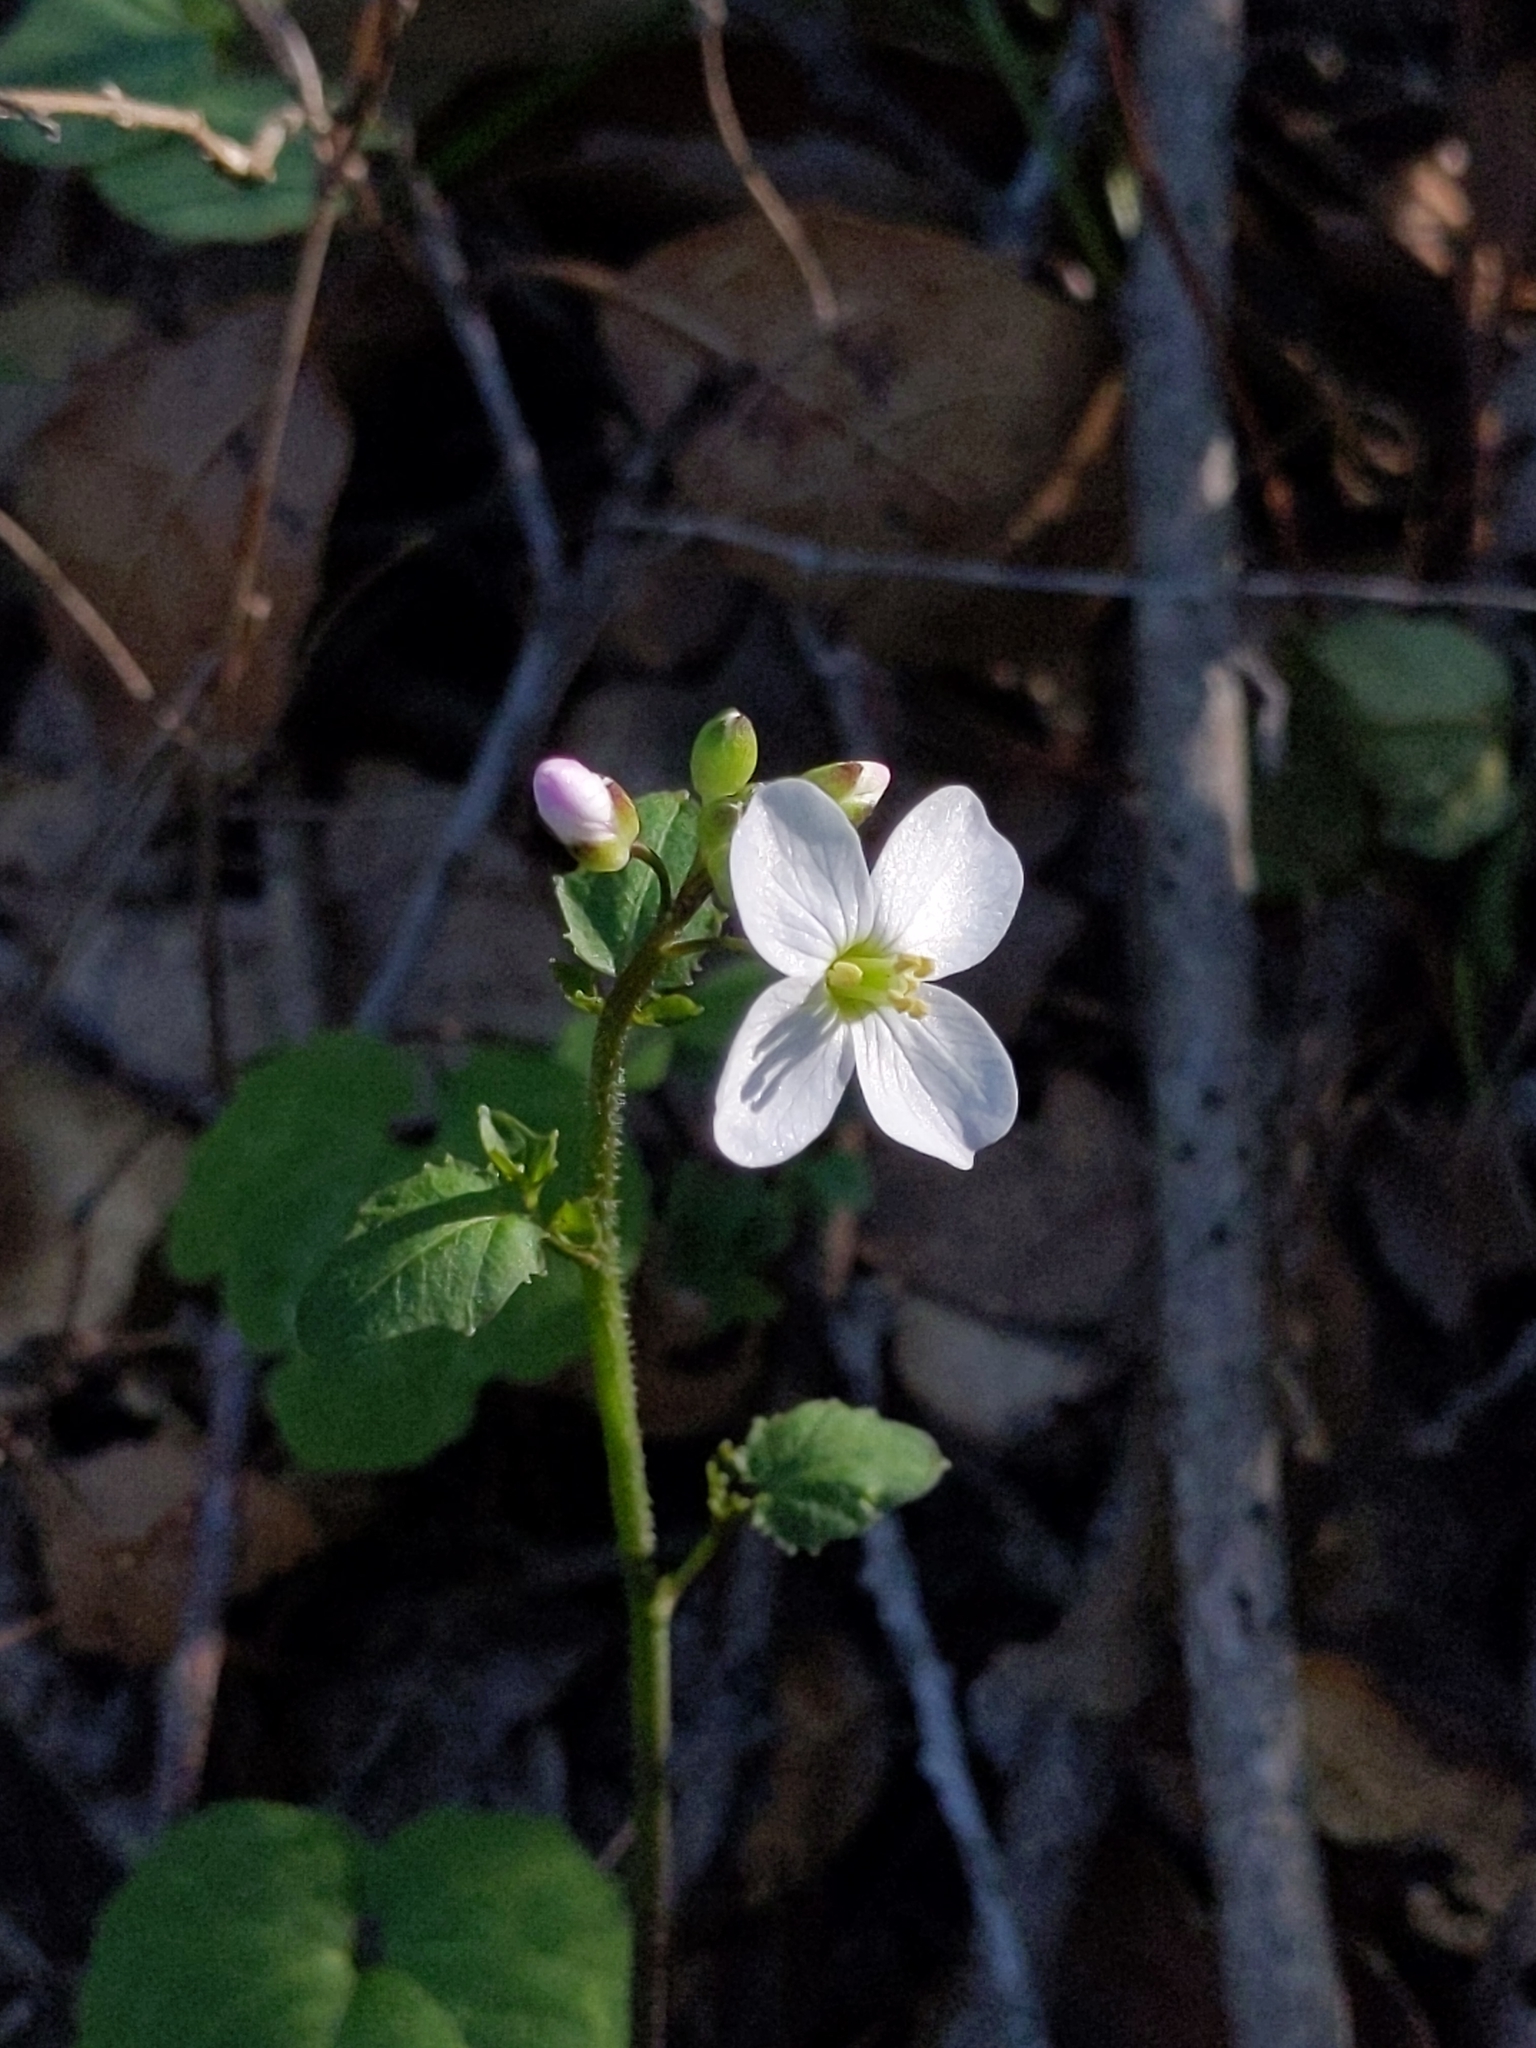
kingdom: Plantae
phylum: Tracheophyta
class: Magnoliopsida
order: Brassicales
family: Brassicaceae
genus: Cardamine
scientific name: Cardamine californica
